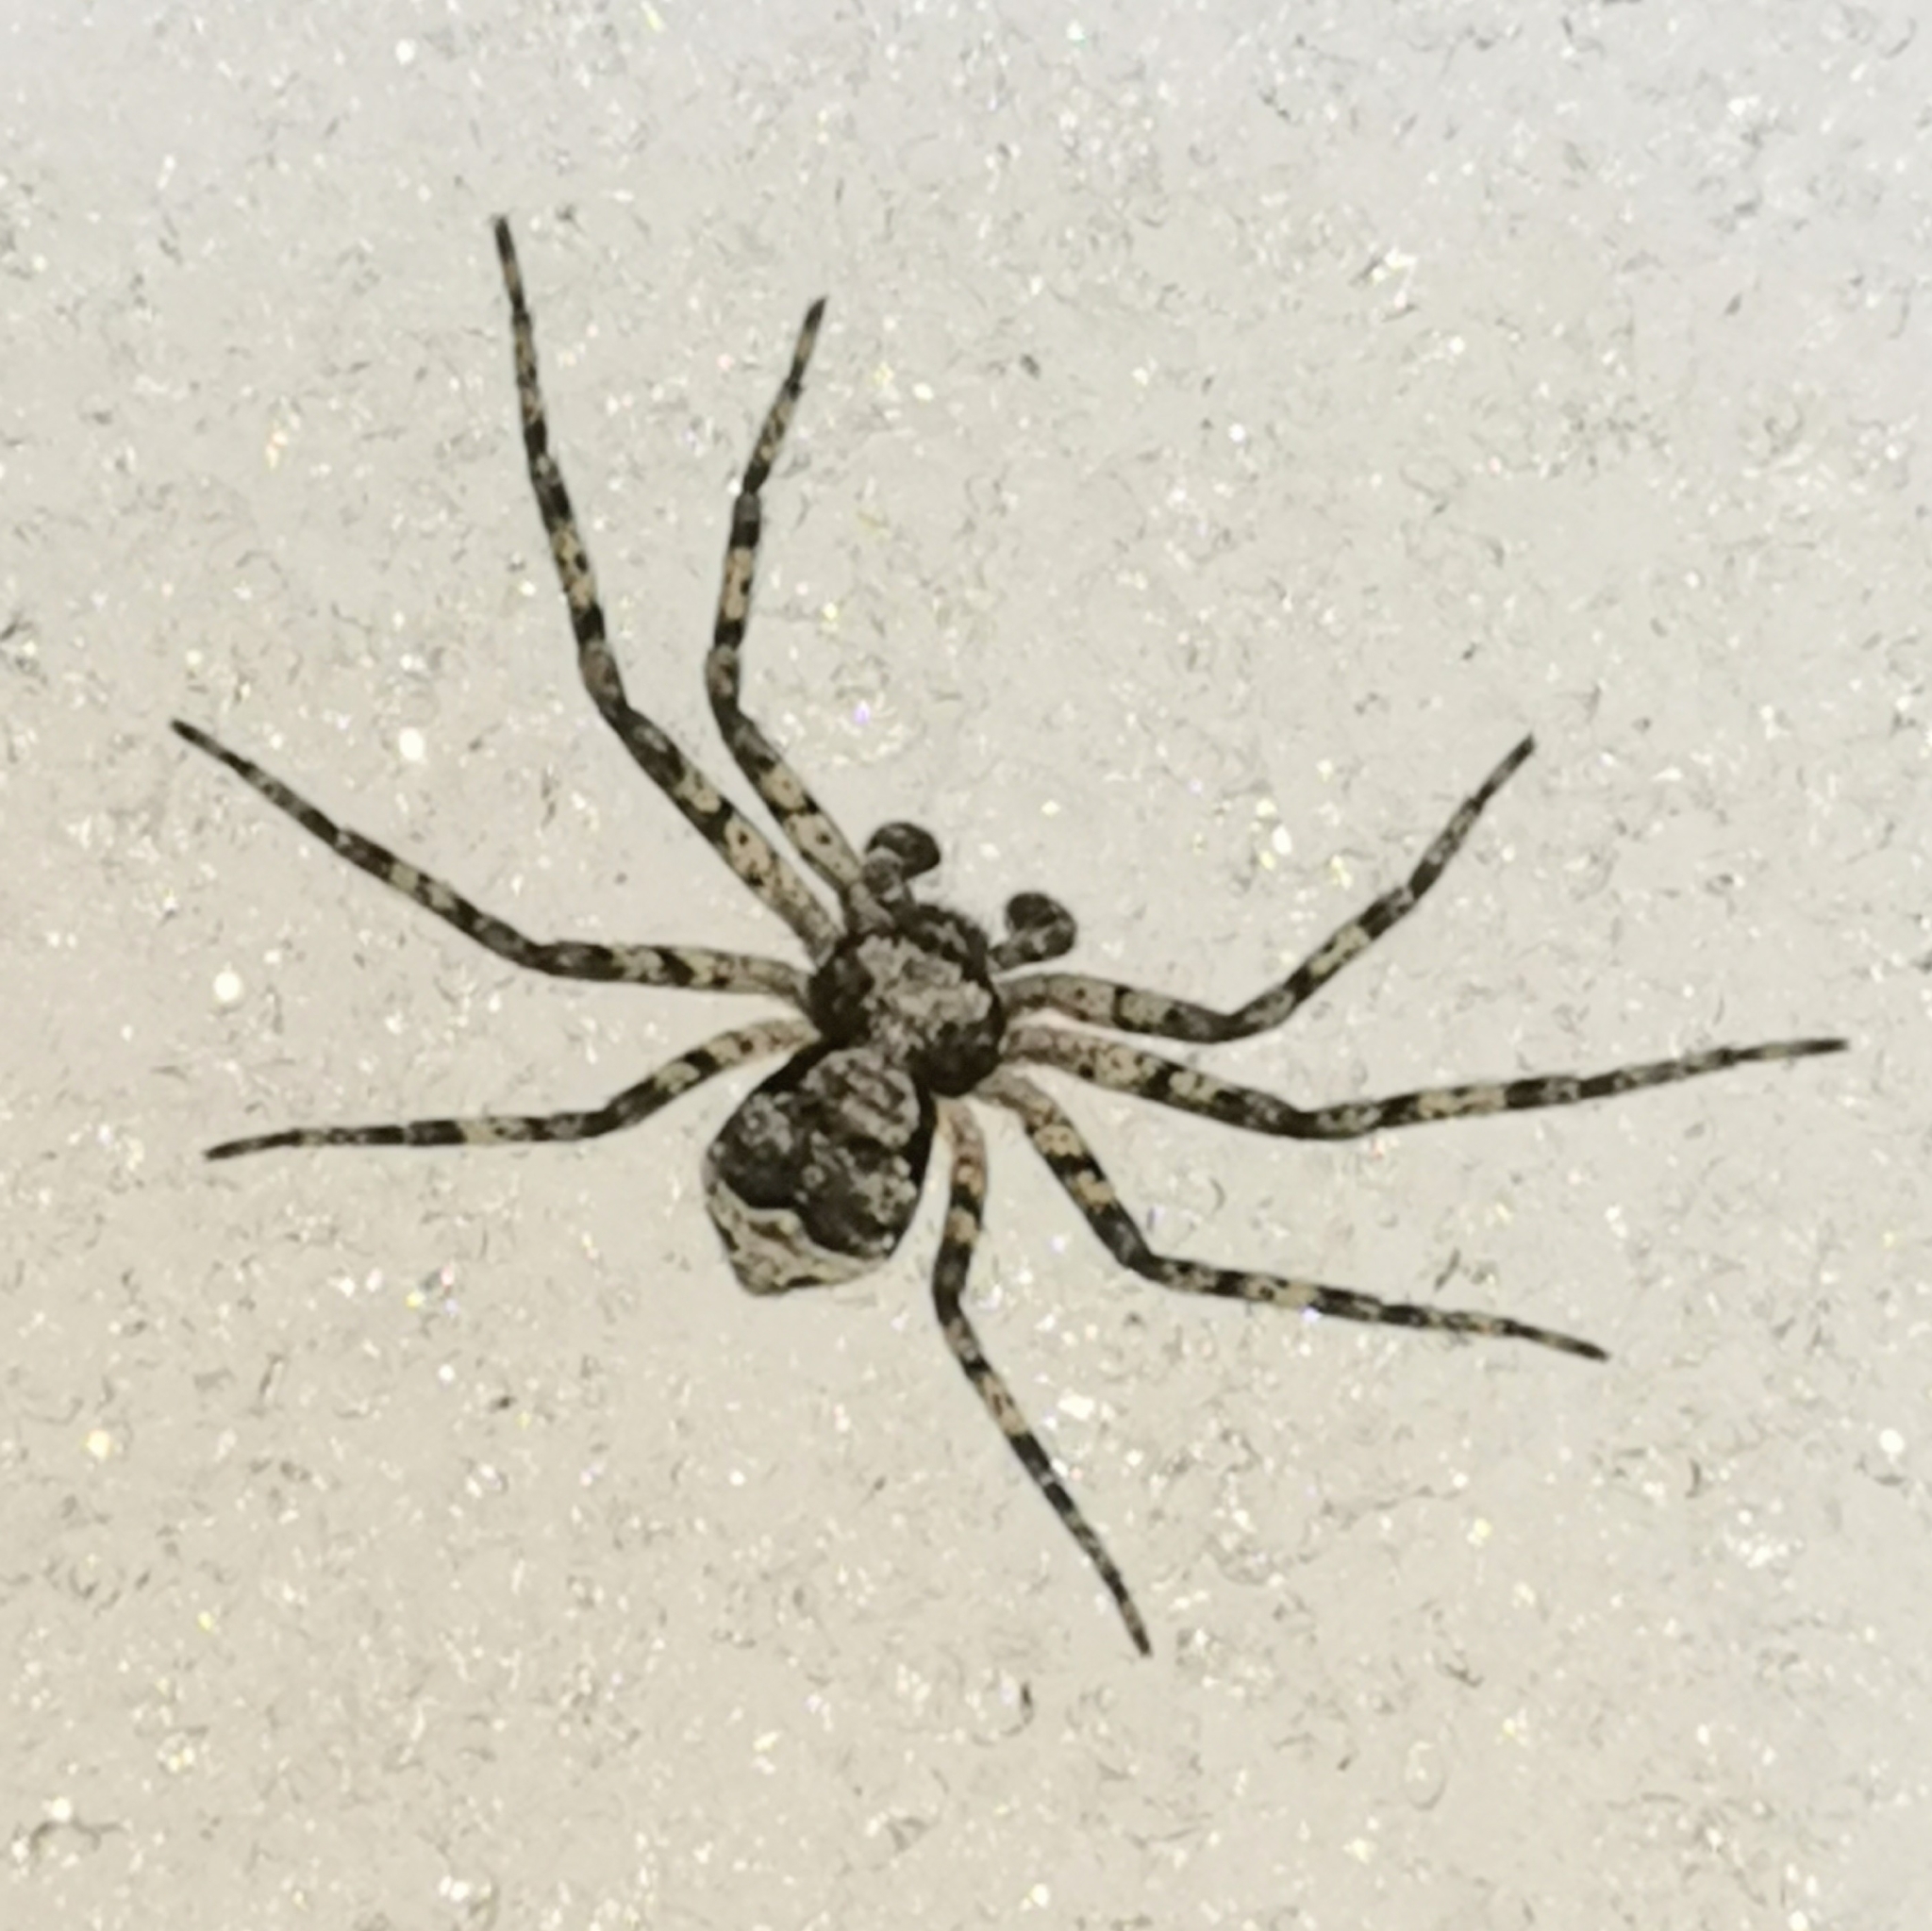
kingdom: Animalia
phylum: Arthropoda
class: Arachnida
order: Araneae
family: Philodromidae
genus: Philodromus
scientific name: Philodromus poecilus
